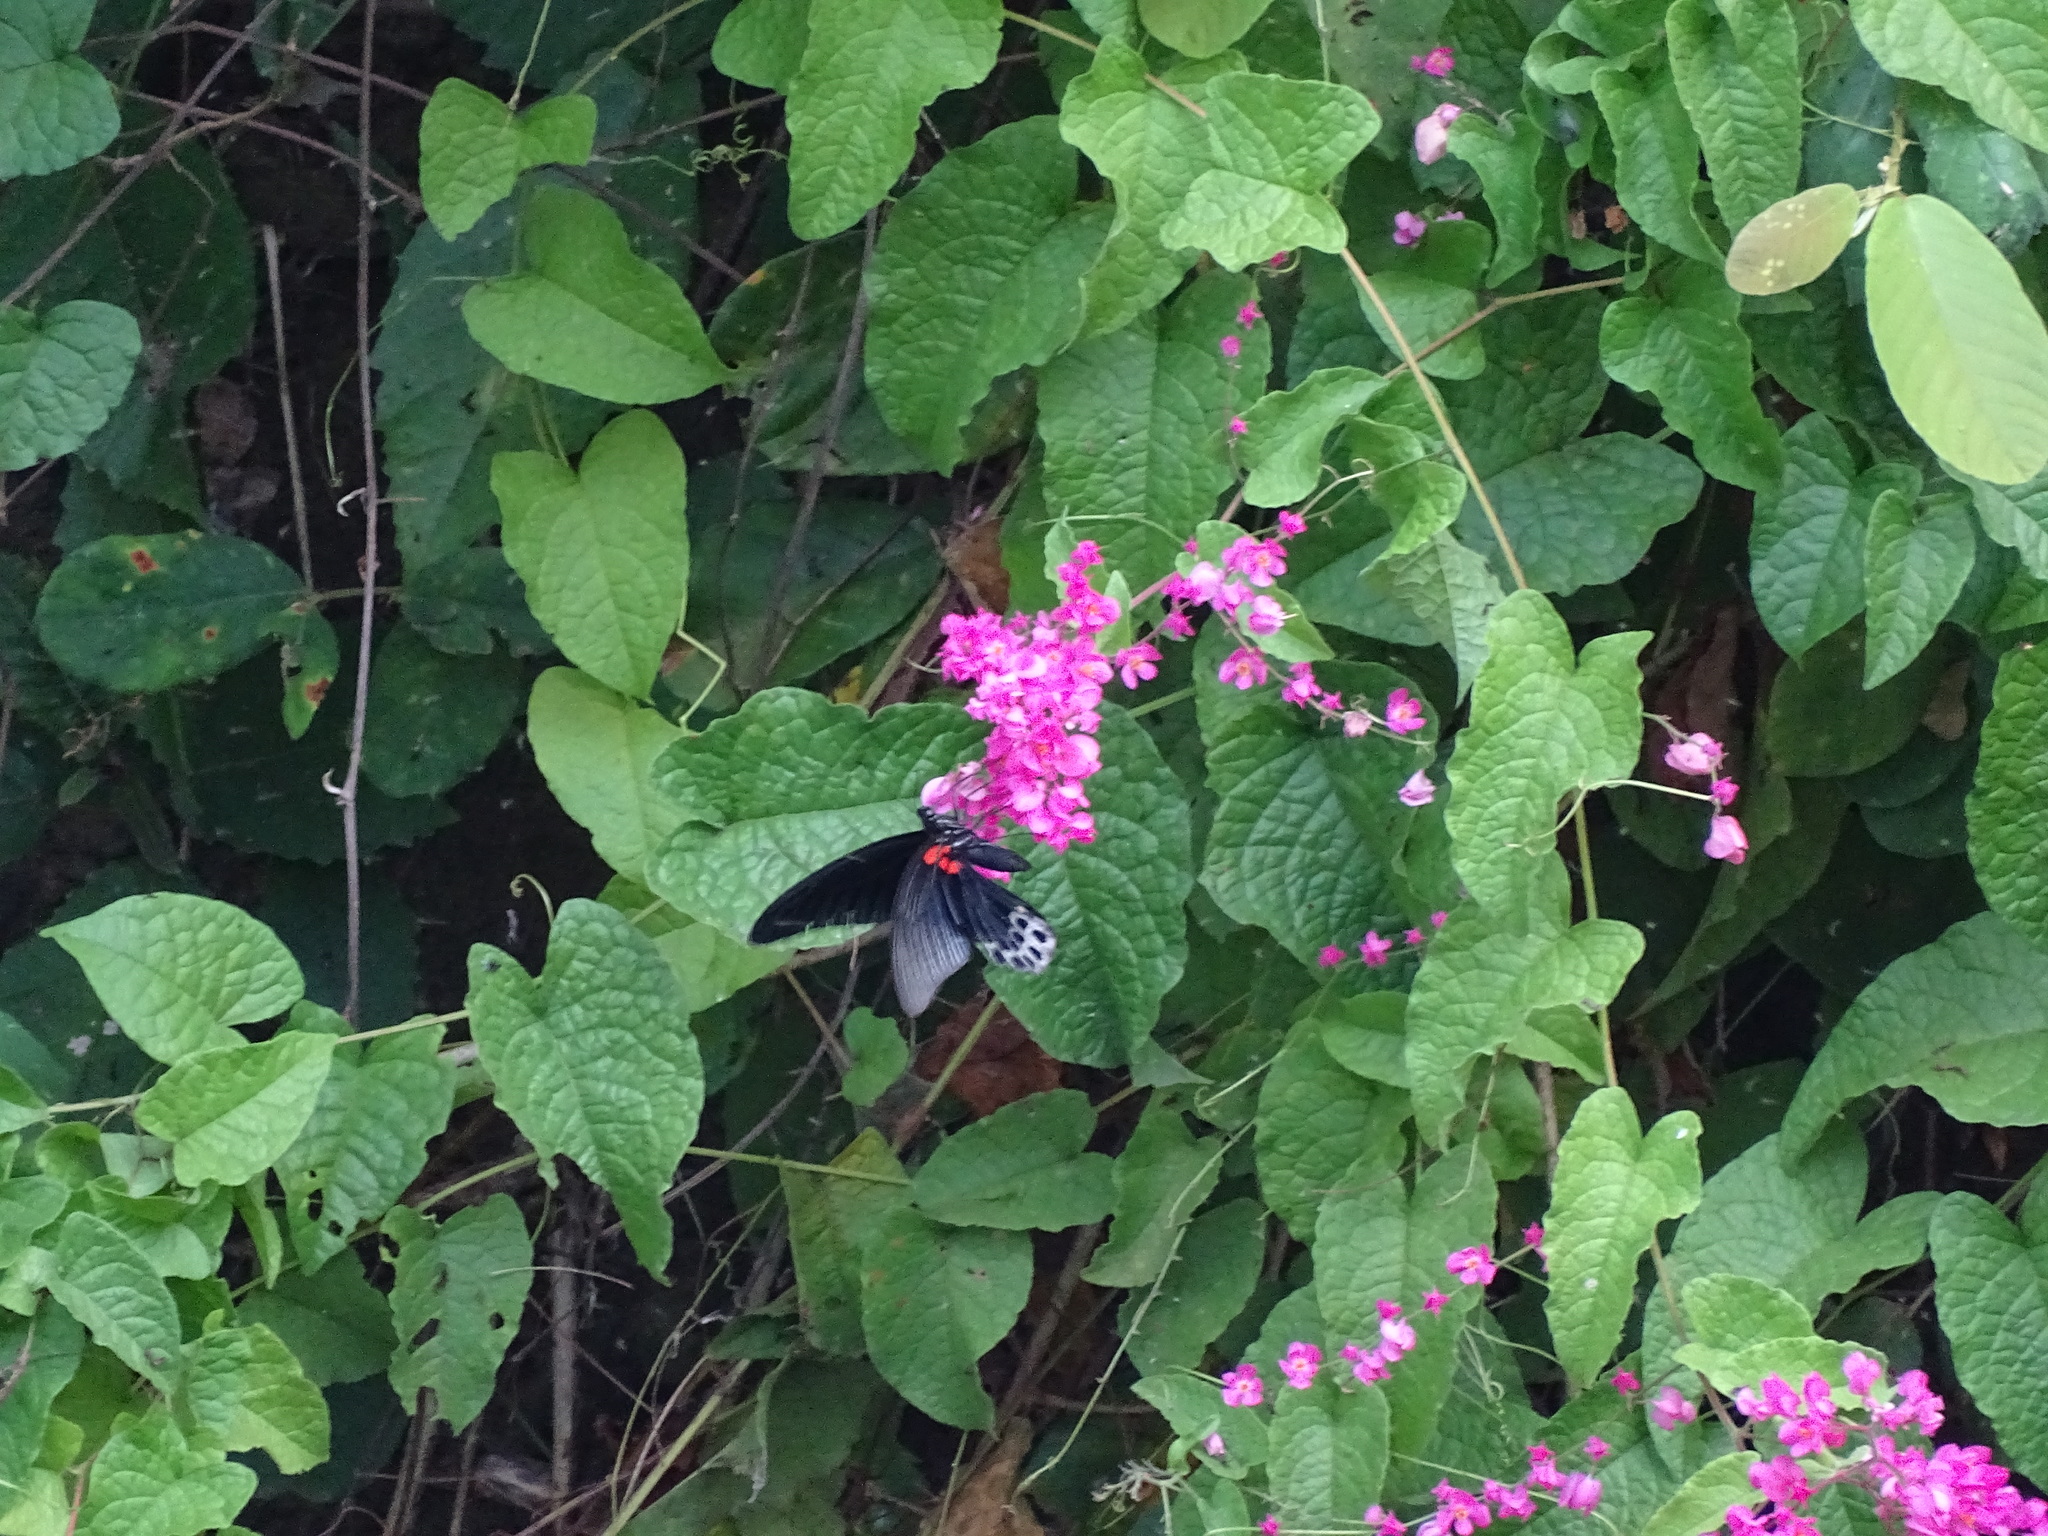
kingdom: Animalia
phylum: Arthropoda
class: Insecta
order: Lepidoptera
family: Papilionidae
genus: Papilio
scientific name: Papilio memnon
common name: Great mormon
